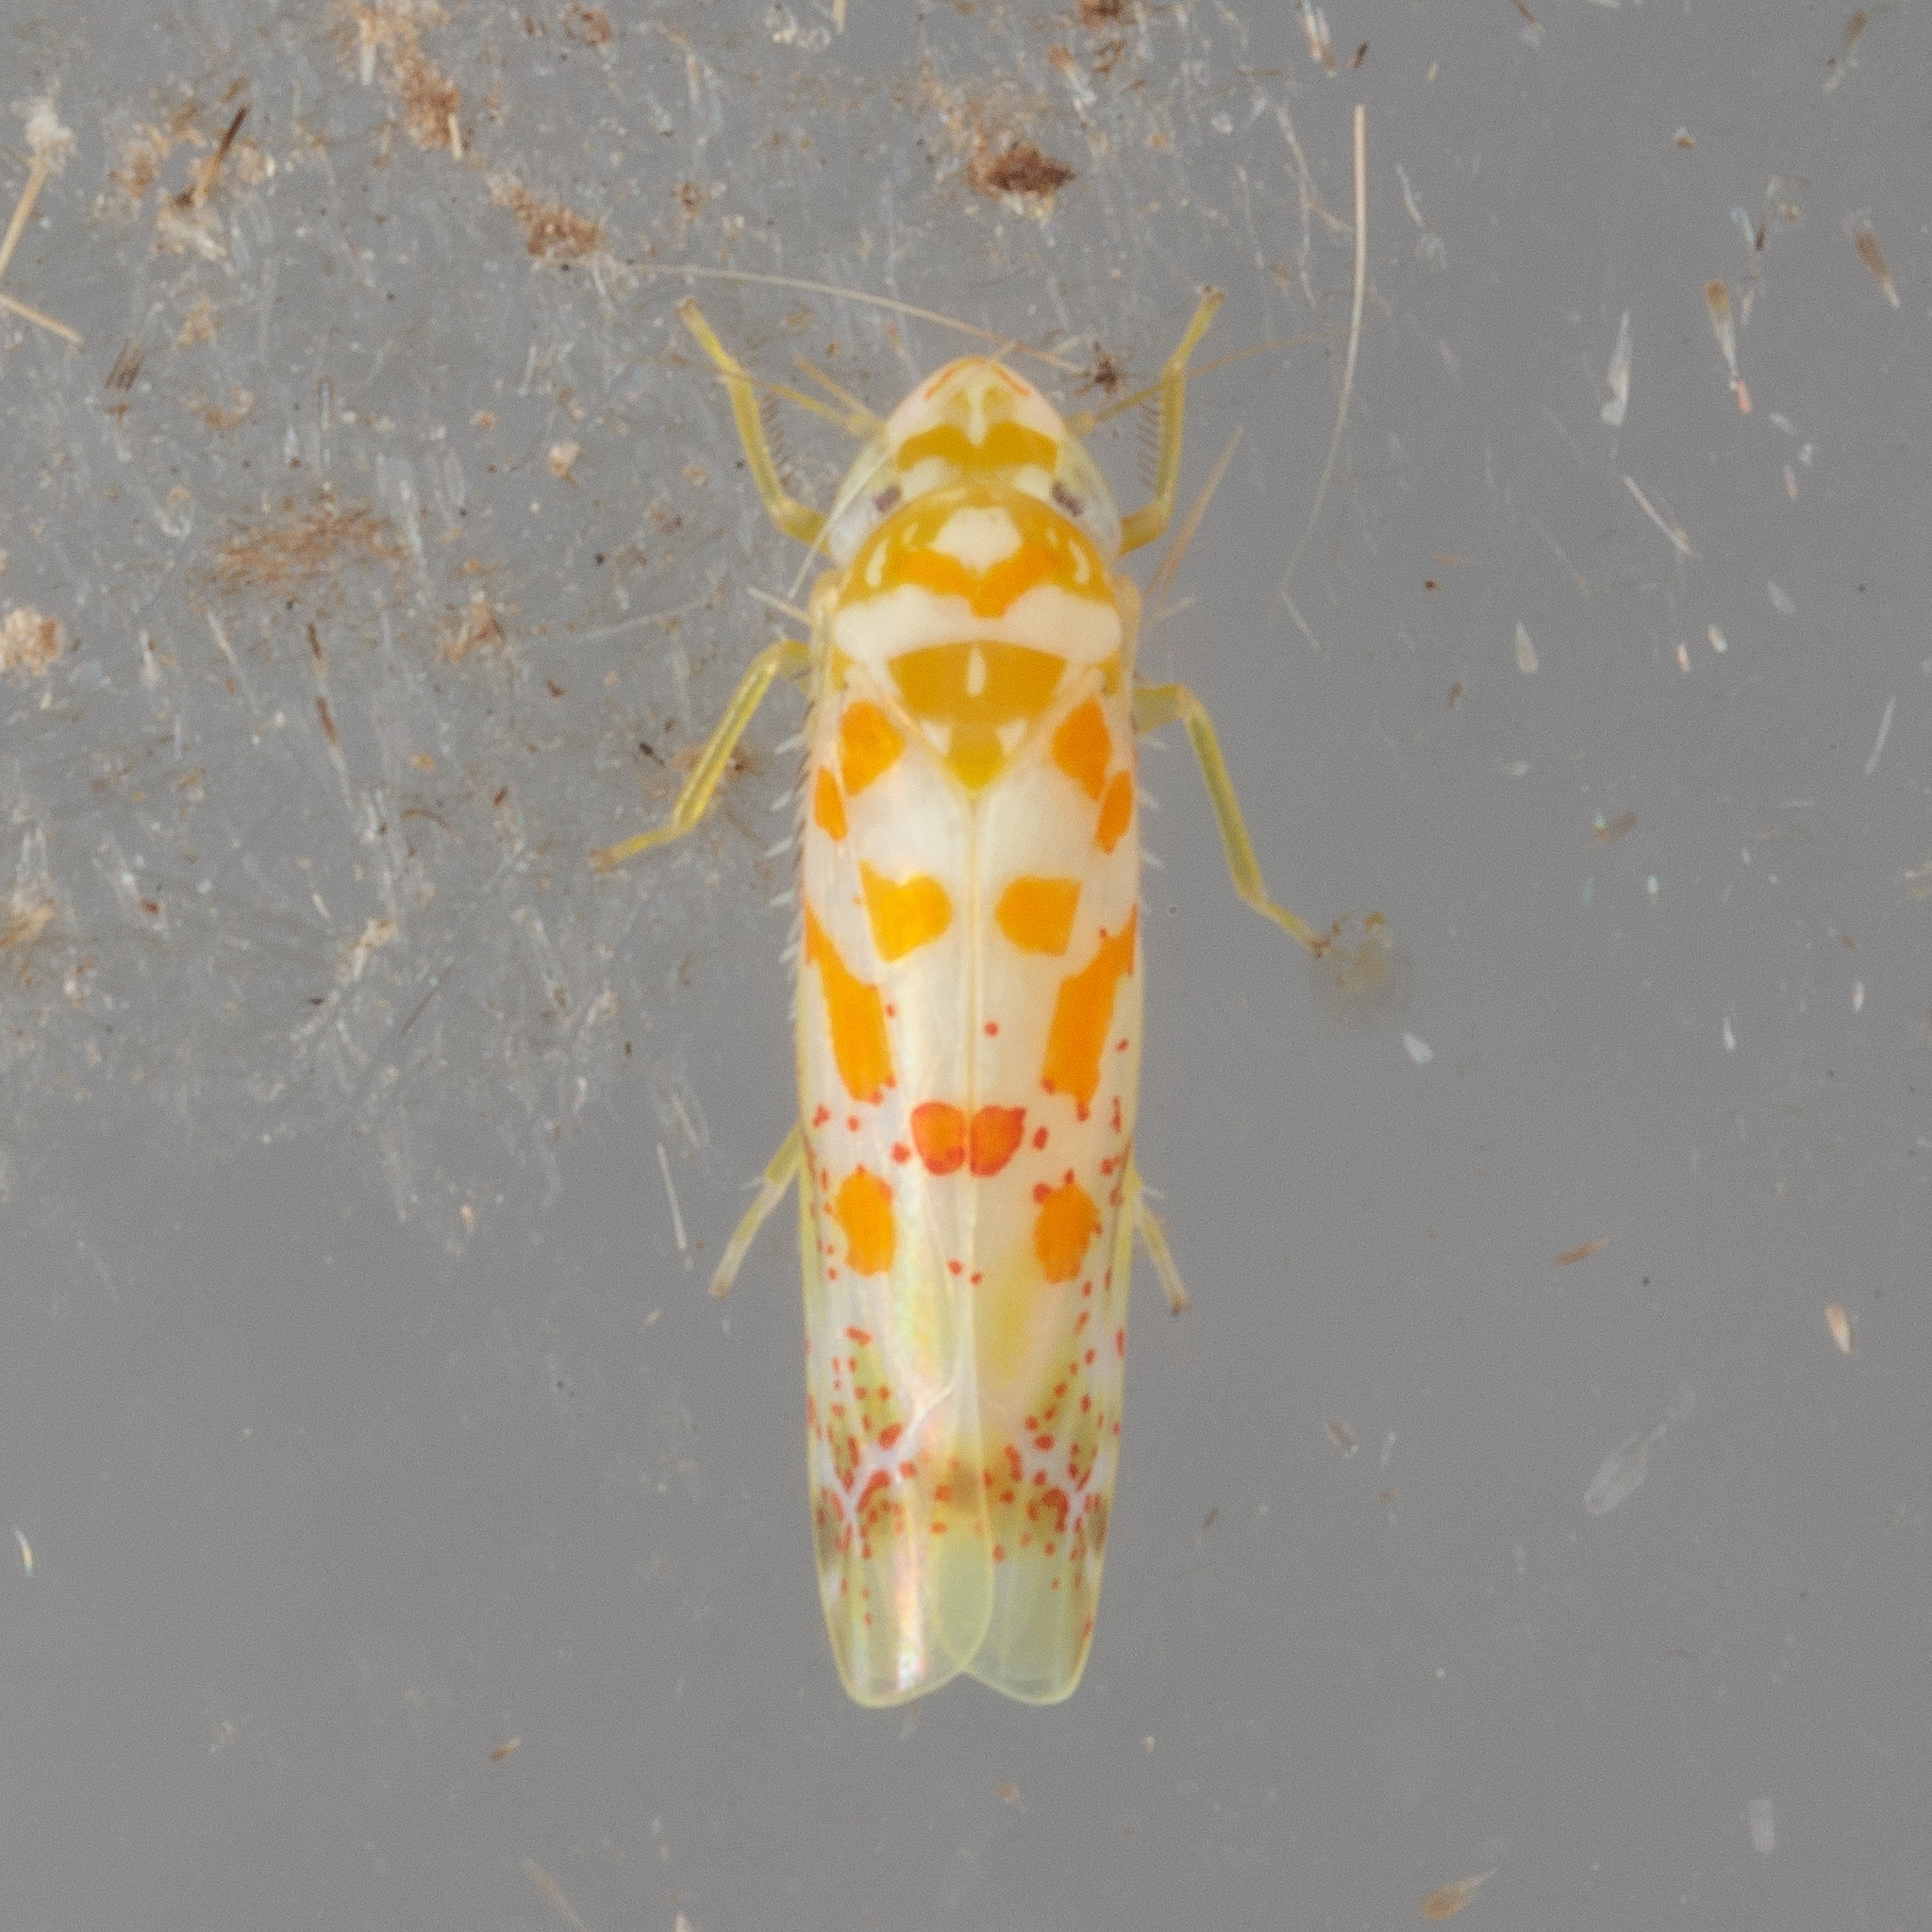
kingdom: Animalia
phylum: Arthropoda
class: Insecta
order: Hemiptera
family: Cicadellidae
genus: Dikrella
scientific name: Dikrella maculata
